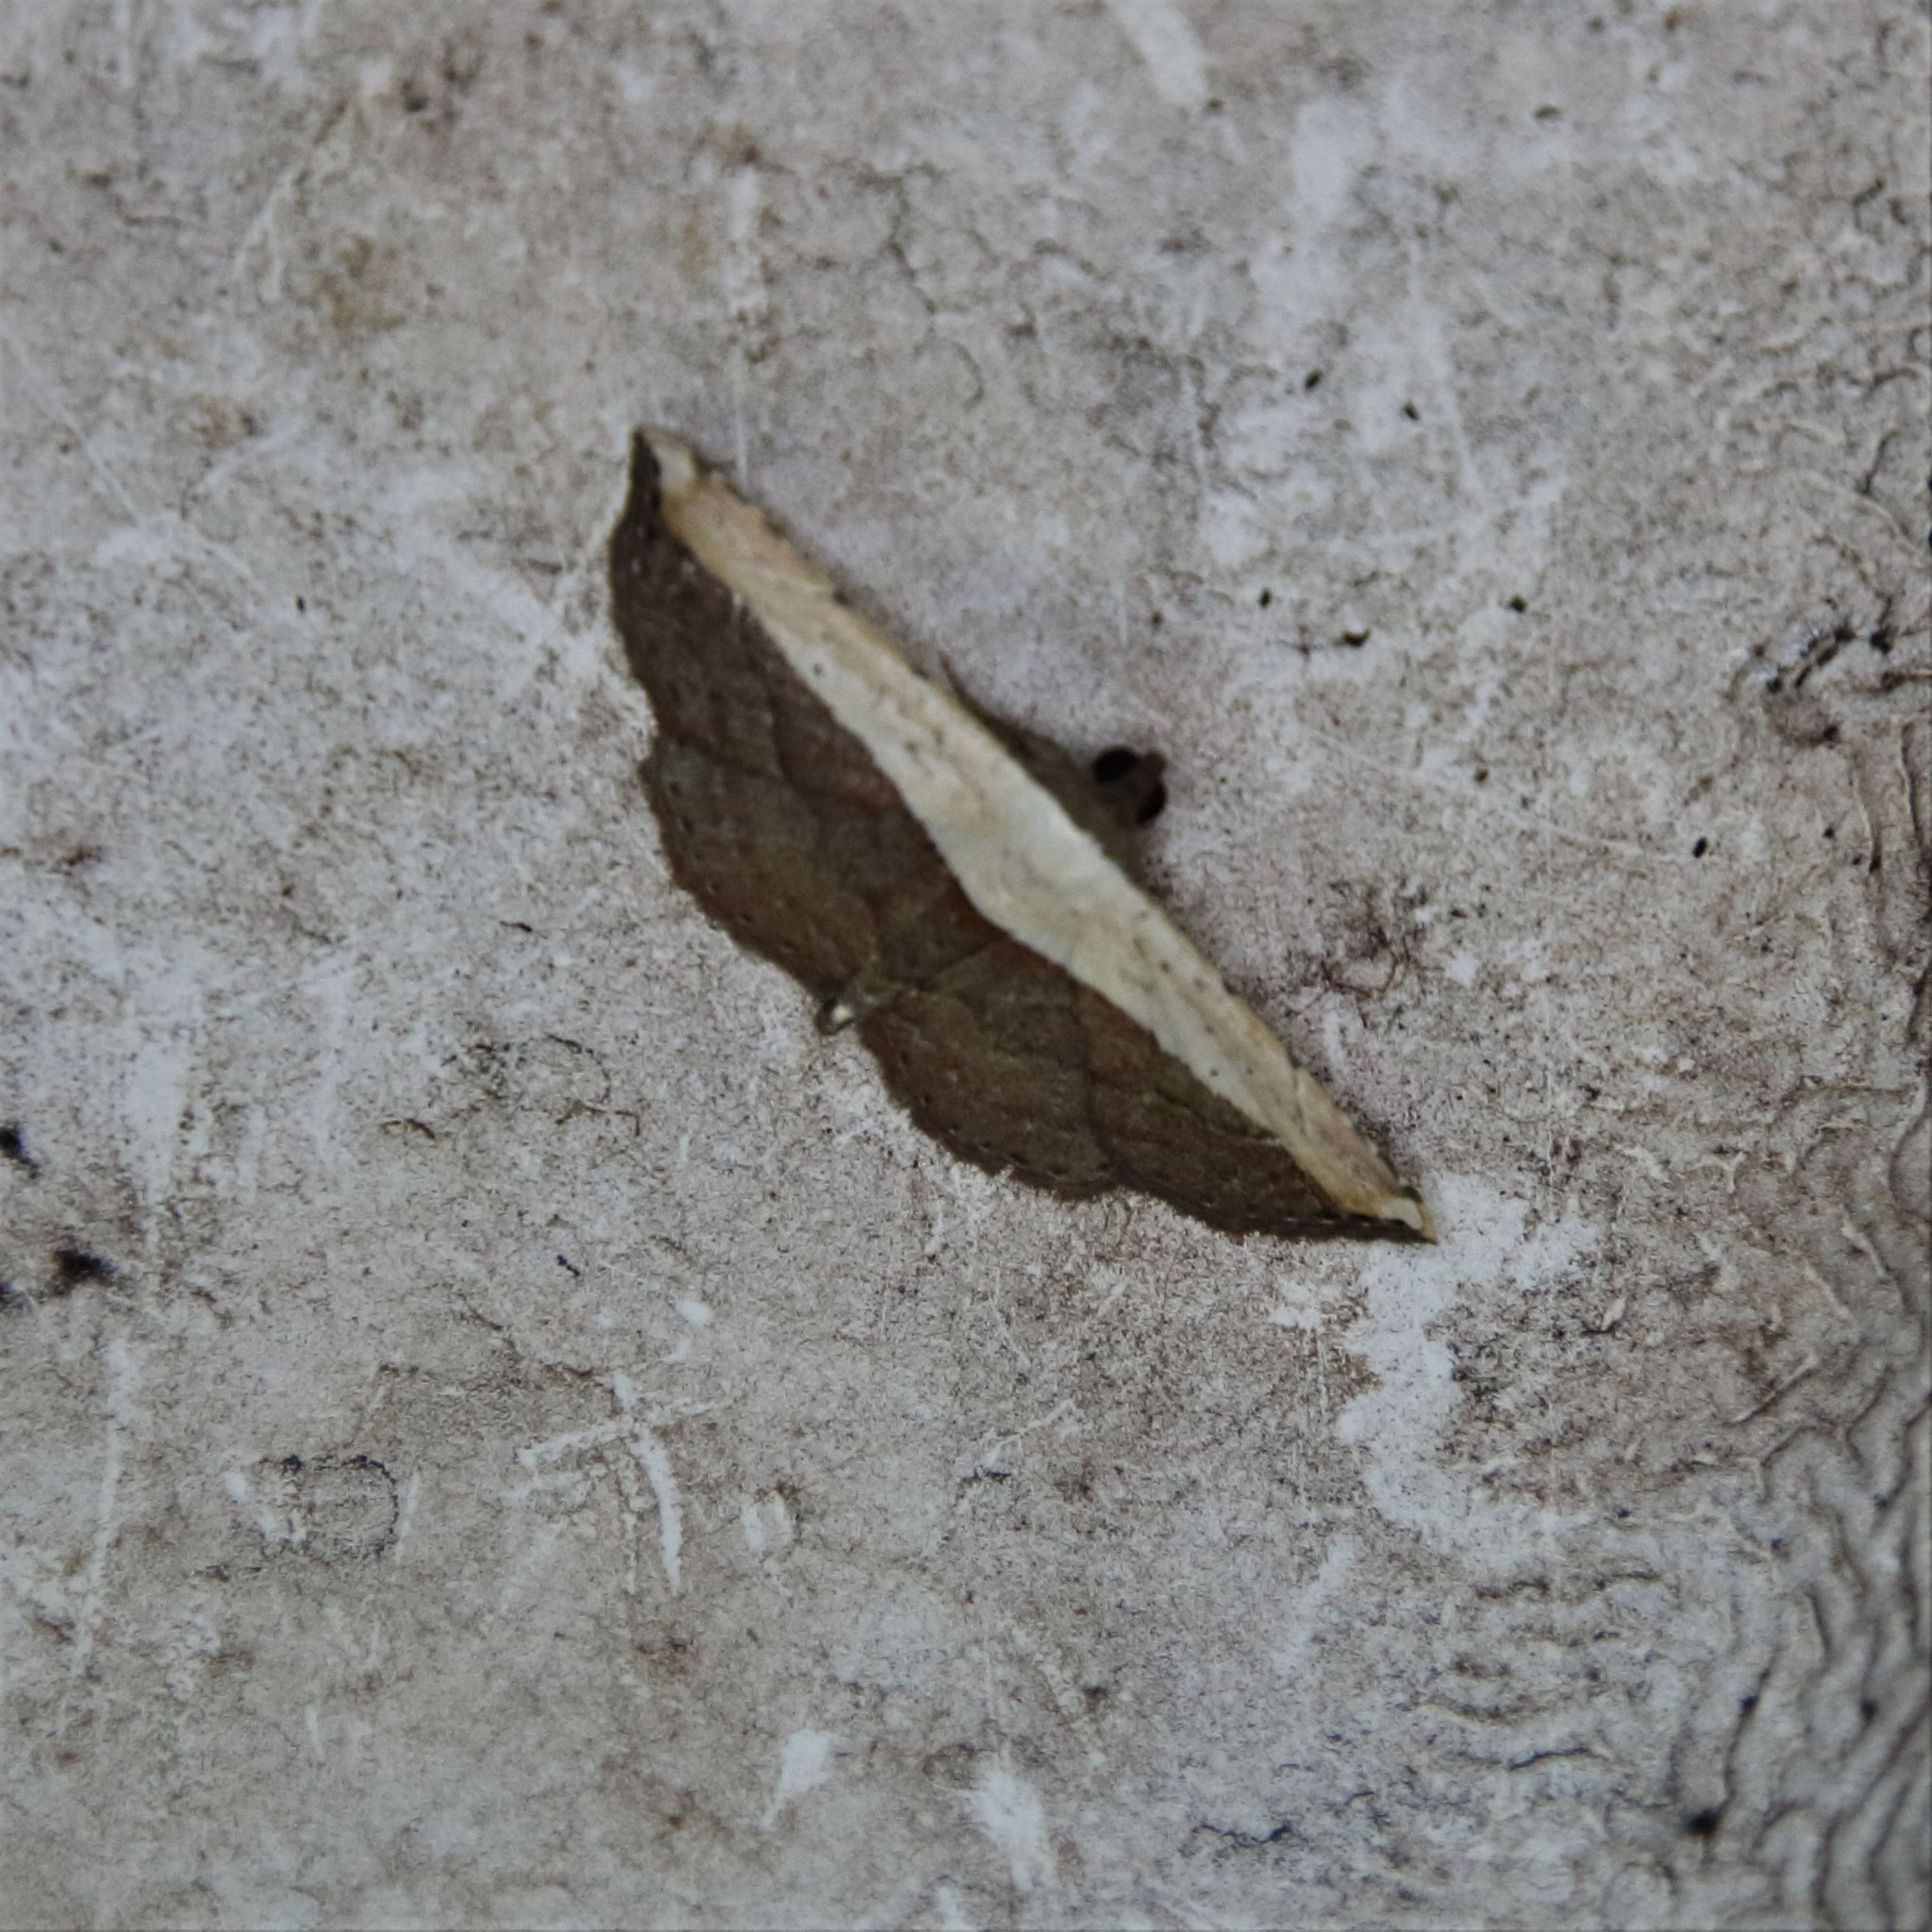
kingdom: Animalia
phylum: Arthropoda
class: Insecta
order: Lepidoptera
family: Noctuidae
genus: Ataboruza
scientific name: Ataboruza divisa
